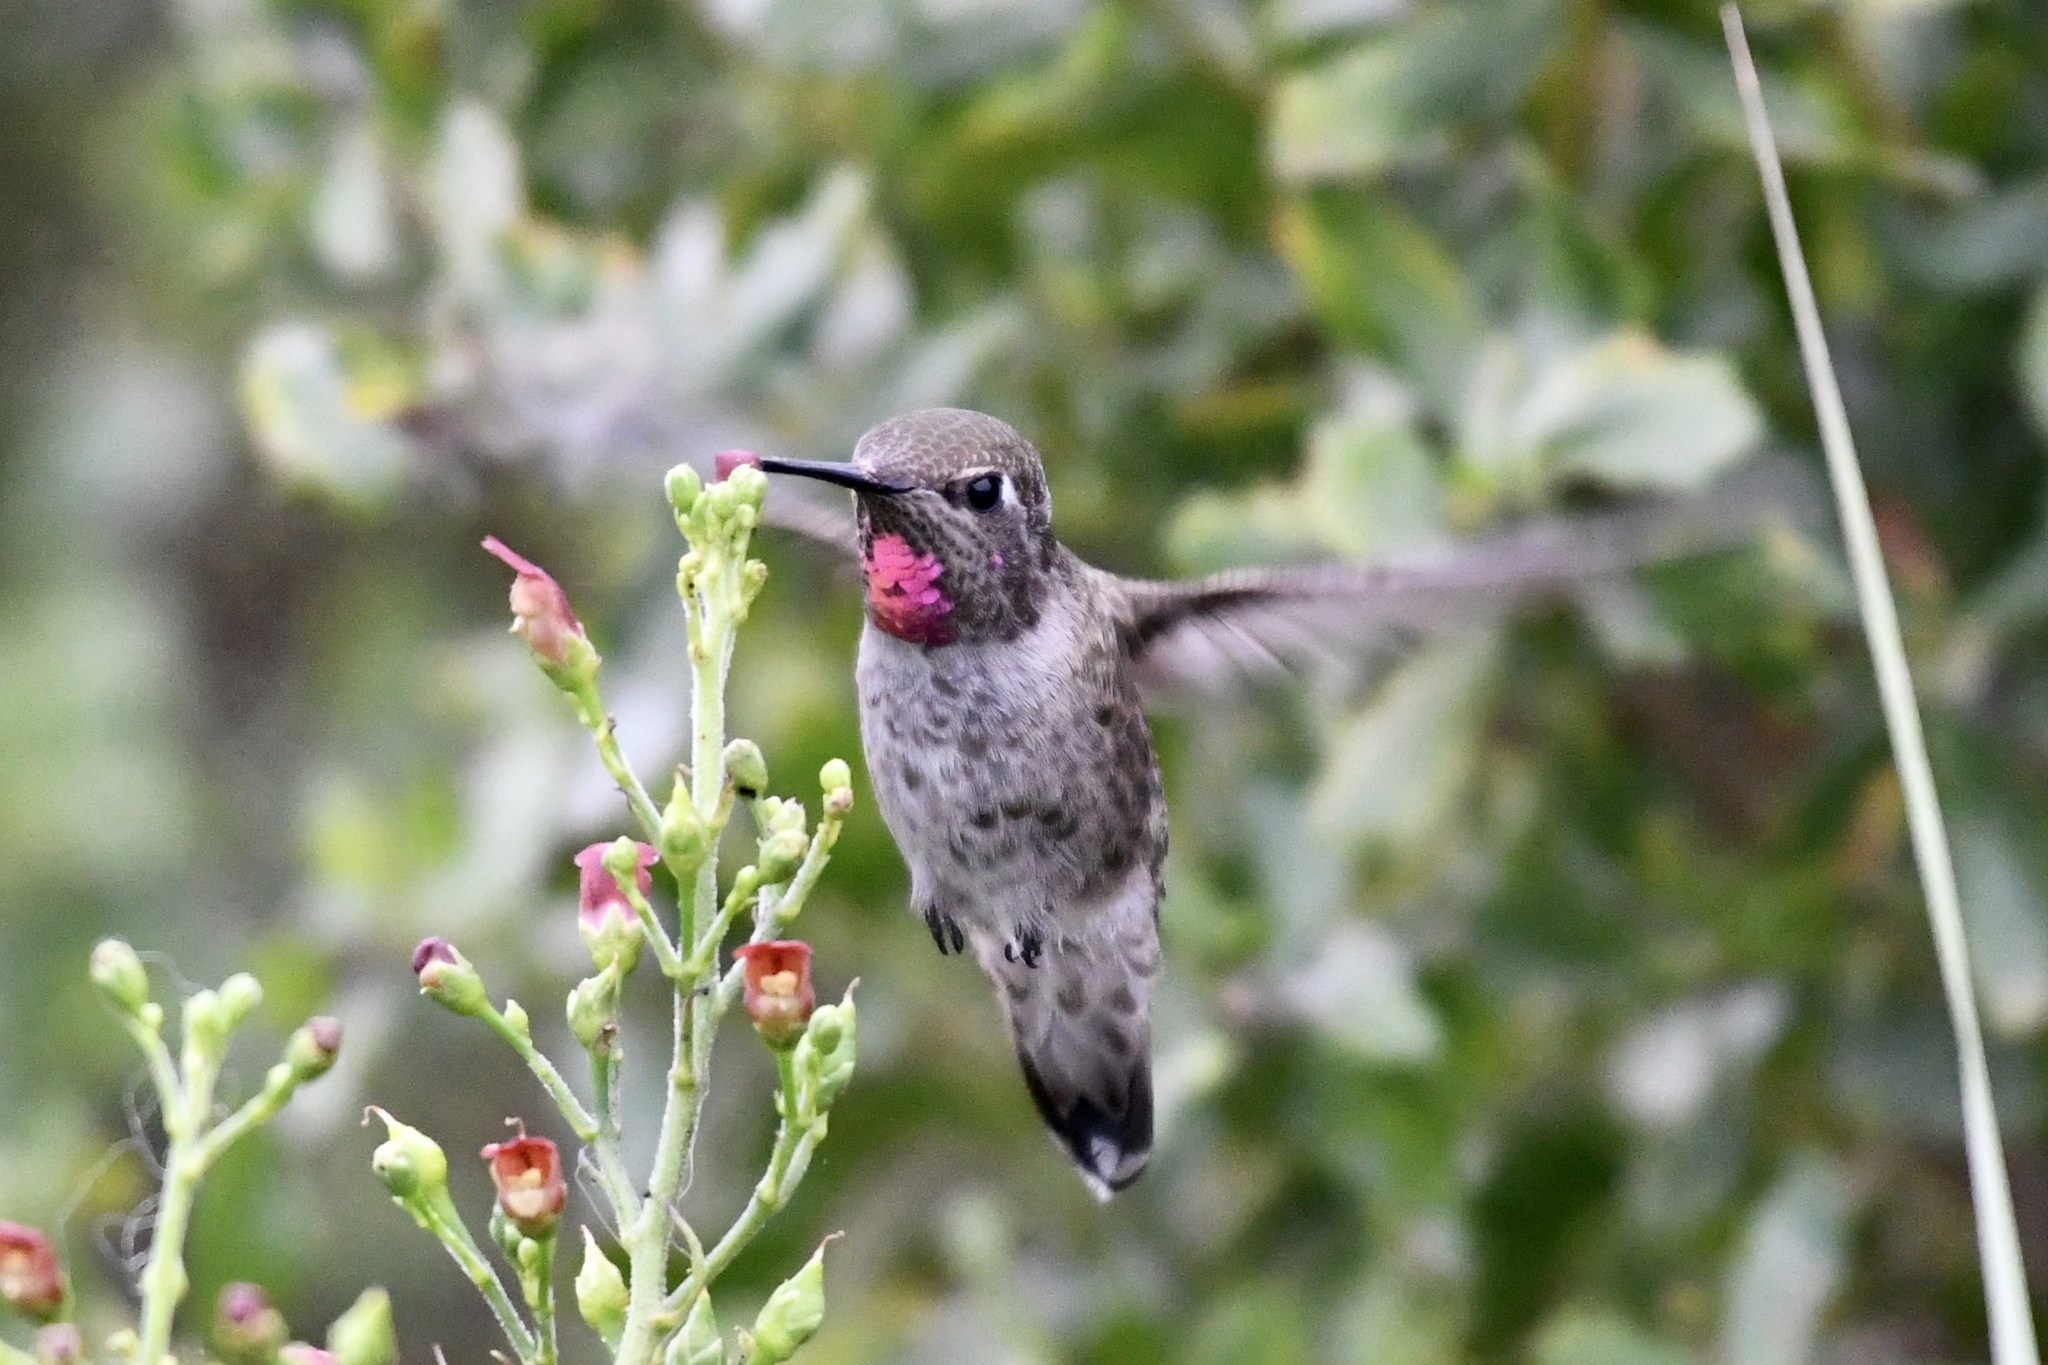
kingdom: Animalia
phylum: Chordata
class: Aves
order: Apodiformes
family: Trochilidae
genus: Calypte
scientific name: Calypte anna
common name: Anna's hummingbird
